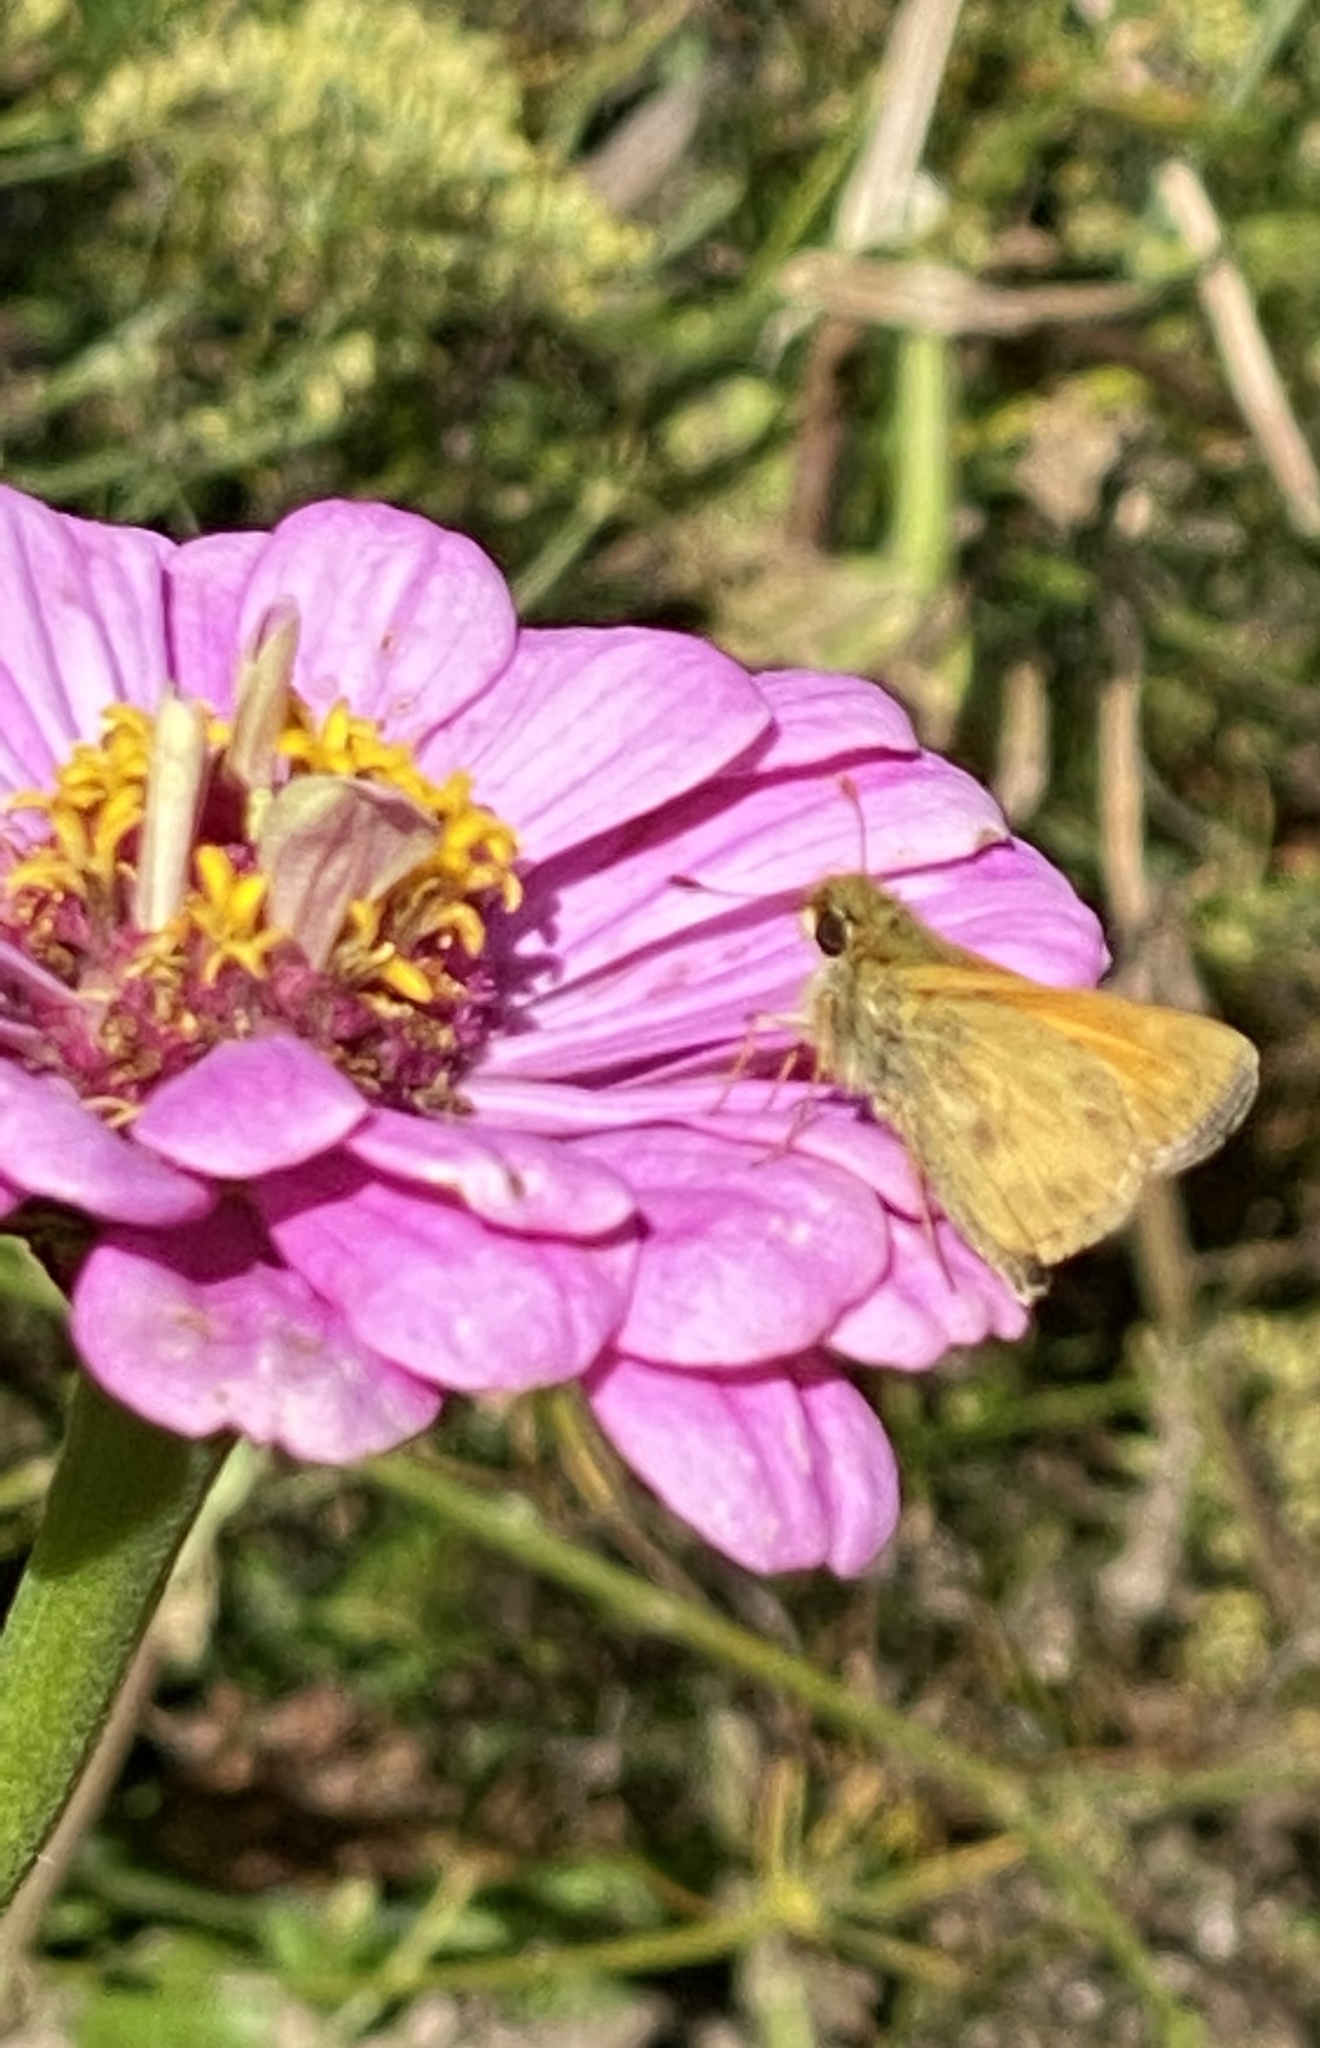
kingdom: Animalia
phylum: Arthropoda
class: Insecta
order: Lepidoptera
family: Hesperiidae
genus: Atalopedes
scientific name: Atalopedes
